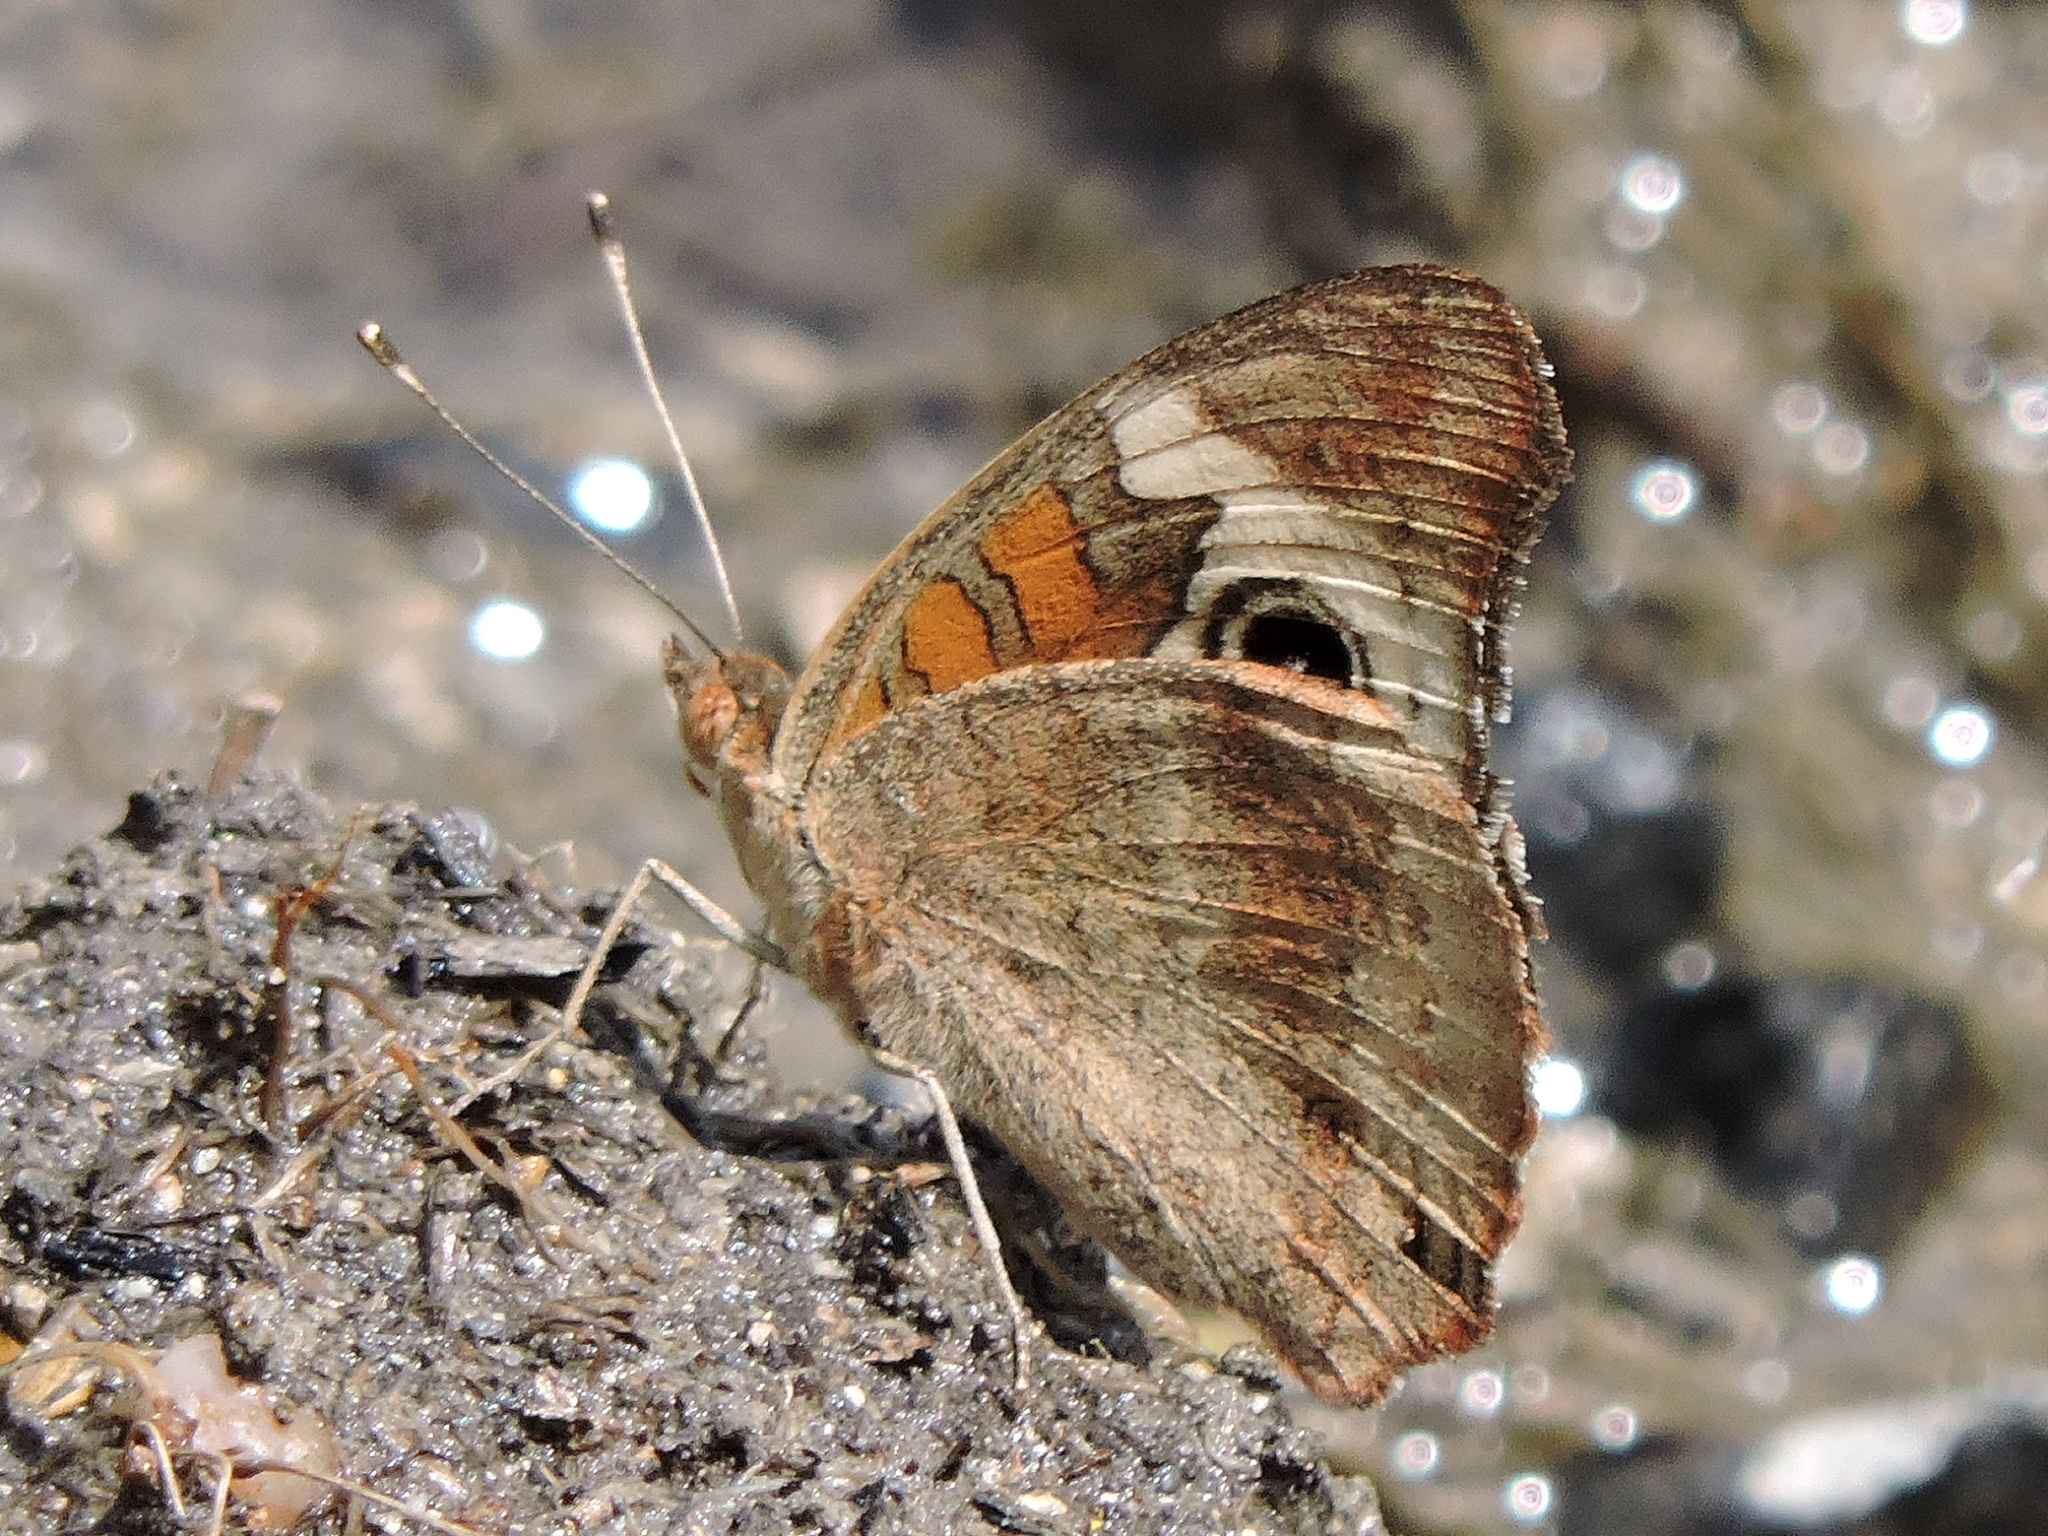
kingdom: Animalia
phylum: Arthropoda
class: Insecta
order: Lepidoptera
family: Nymphalidae
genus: Junonia
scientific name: Junonia coenia
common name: Common buckeye
